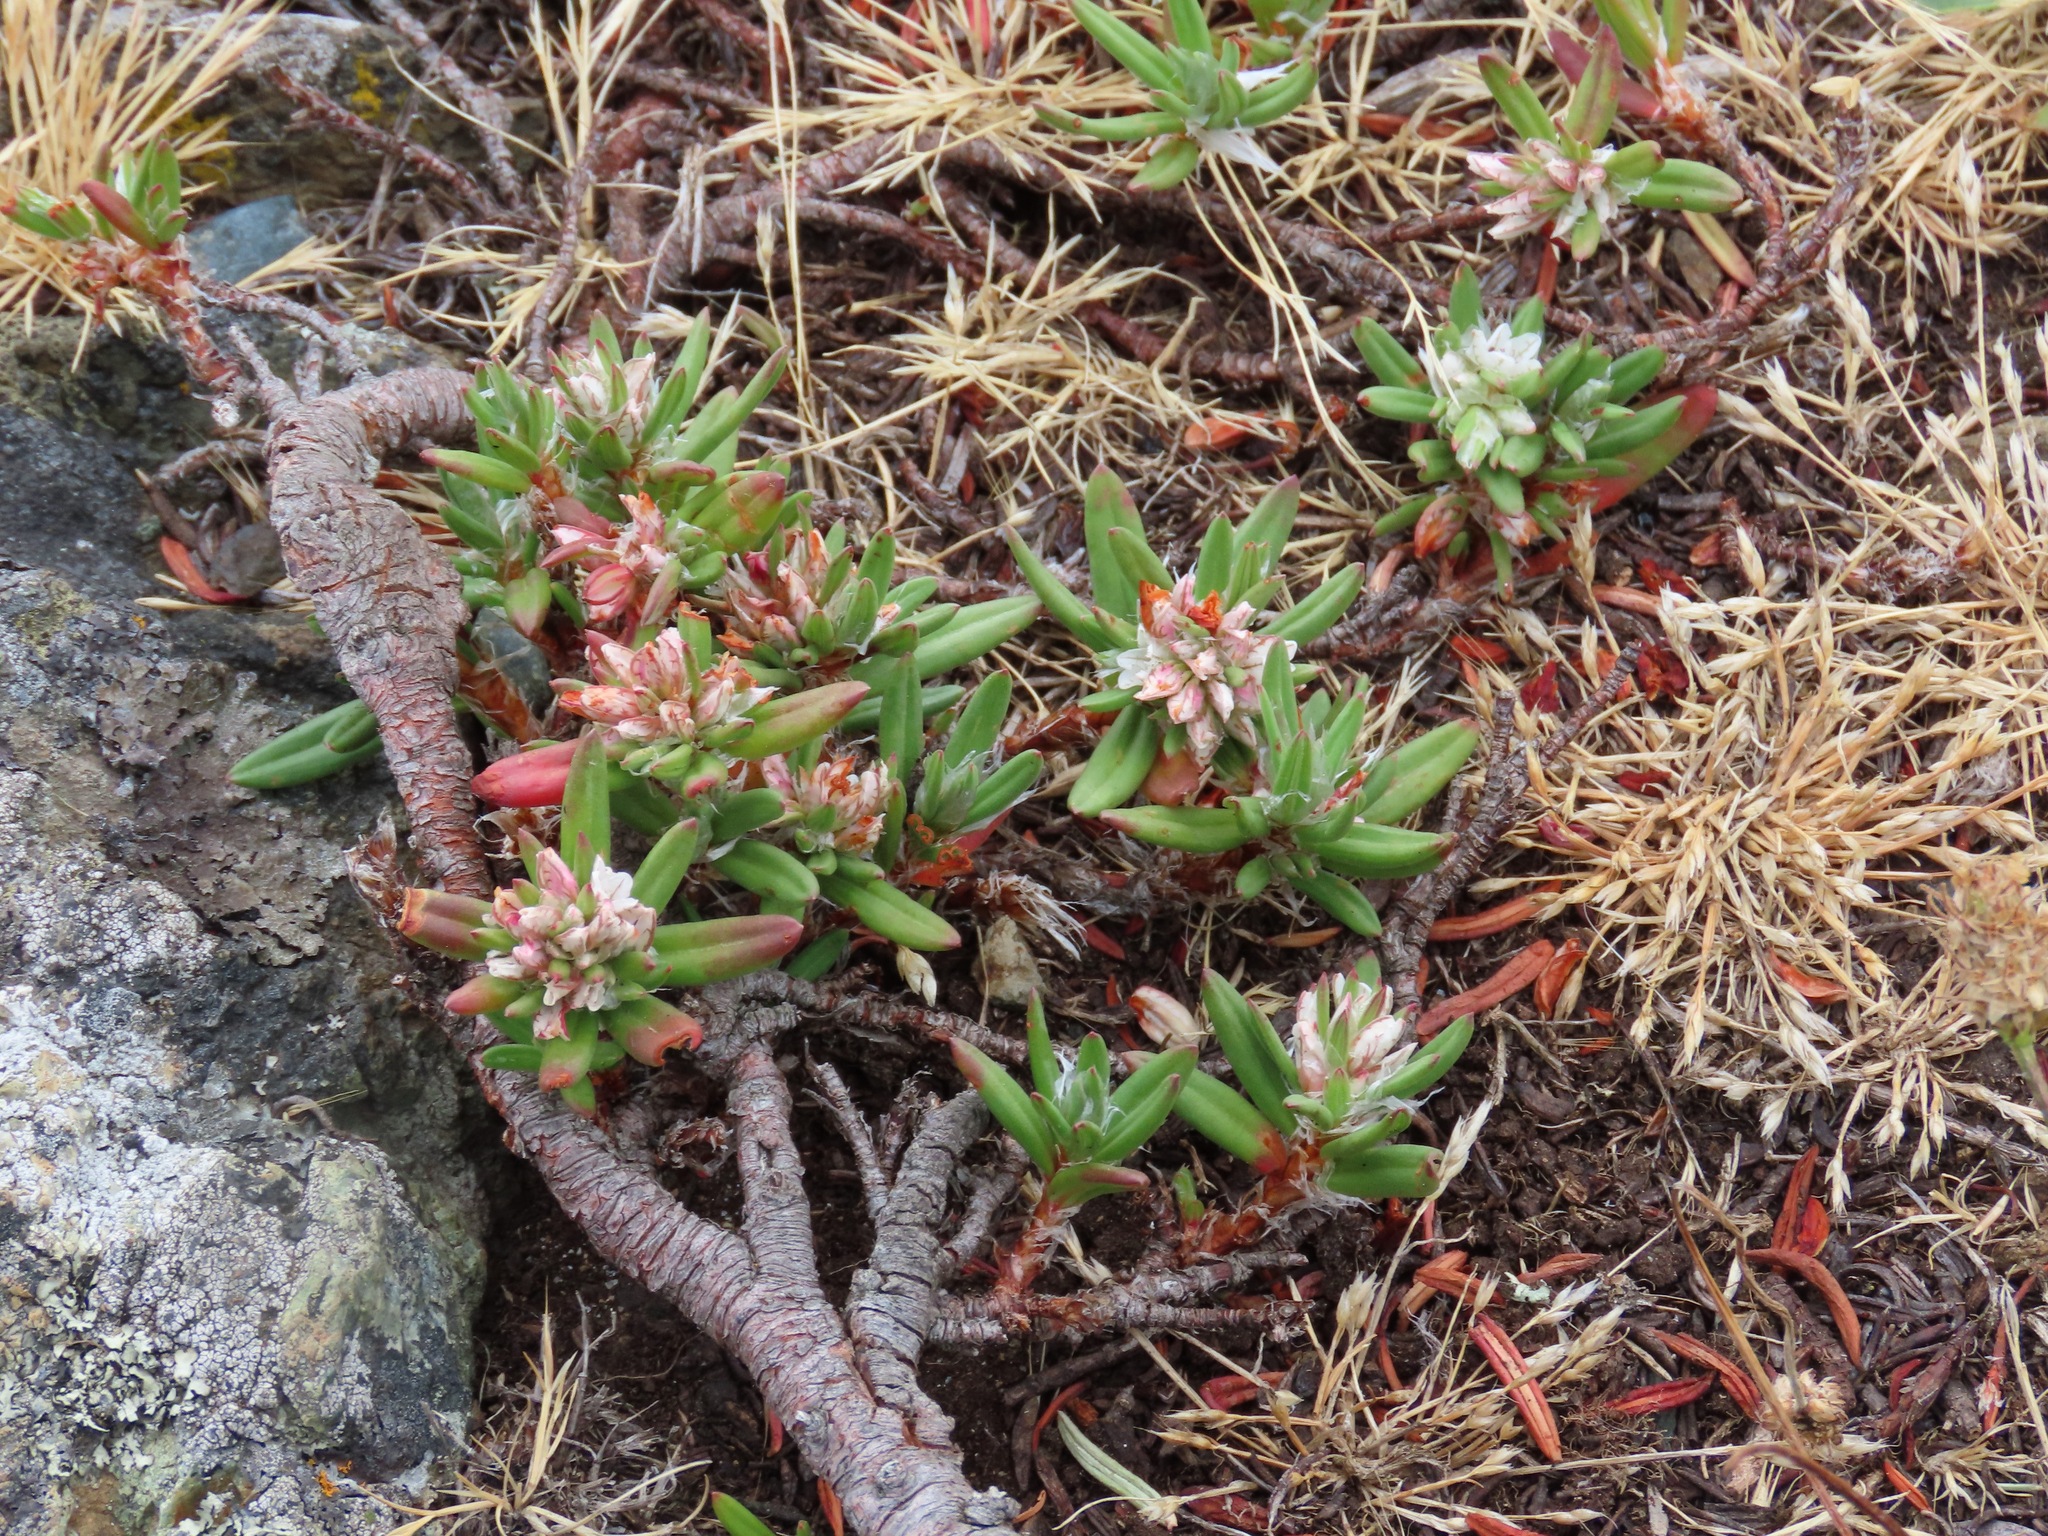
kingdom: Plantae
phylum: Tracheophyta
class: Magnoliopsida
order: Caryophyllales
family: Polygonaceae
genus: Polygonum
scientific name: Polygonum paronychia
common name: Dune knotweed
